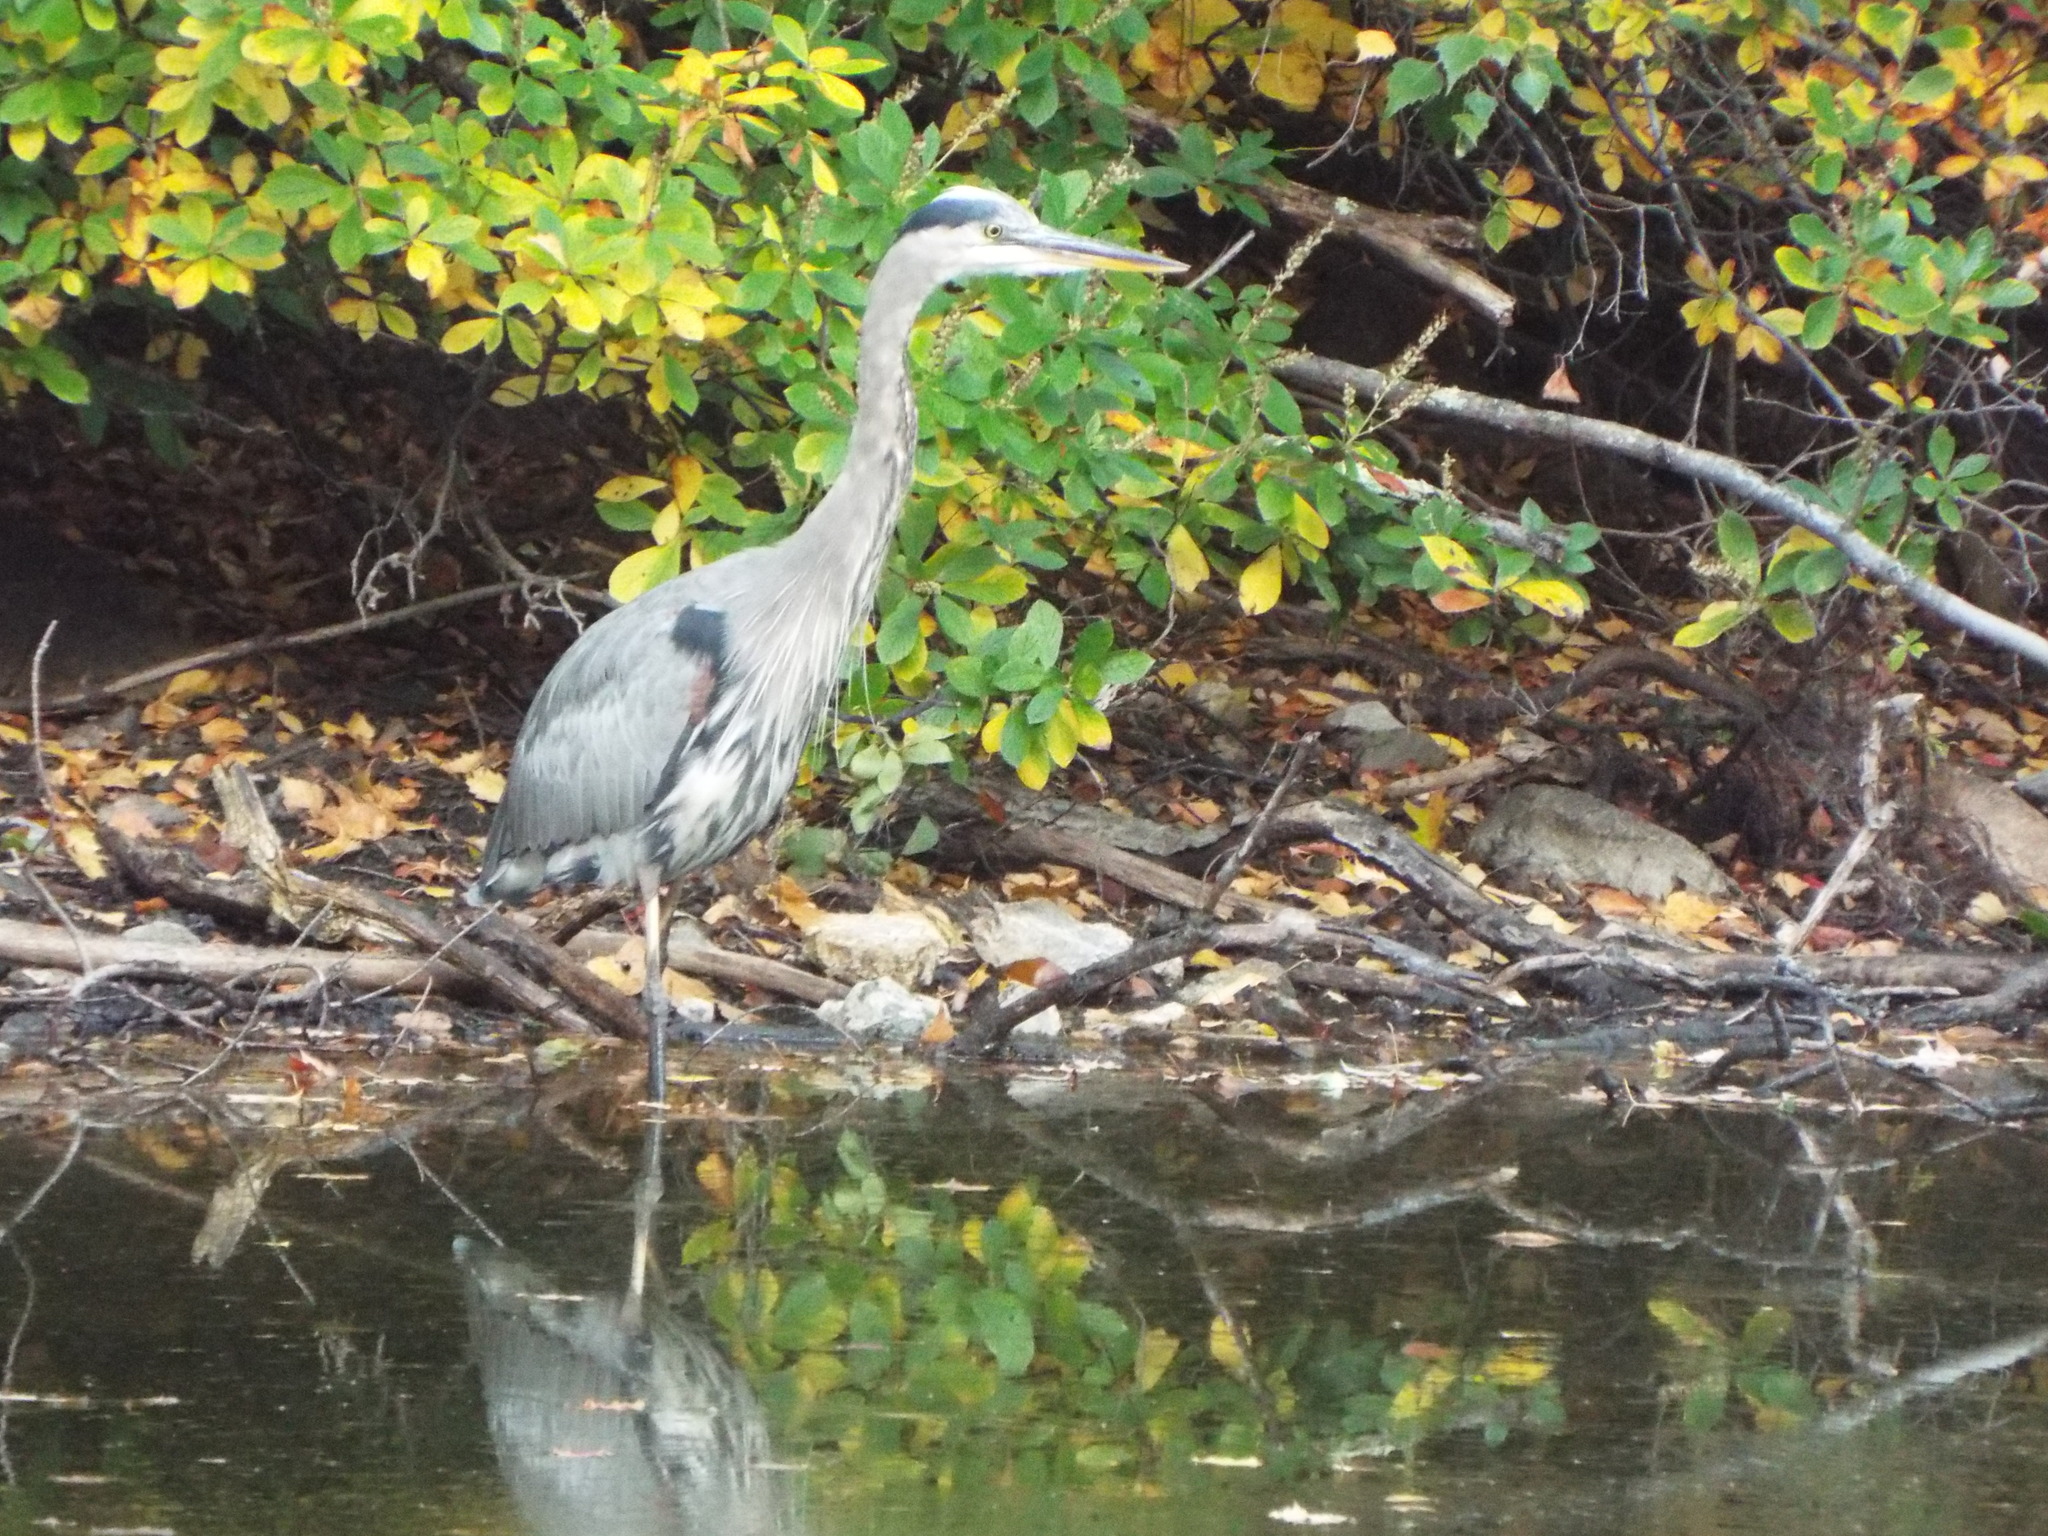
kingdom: Animalia
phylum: Chordata
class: Aves
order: Pelecaniformes
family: Ardeidae
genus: Ardea
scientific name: Ardea herodias
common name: Great blue heron
